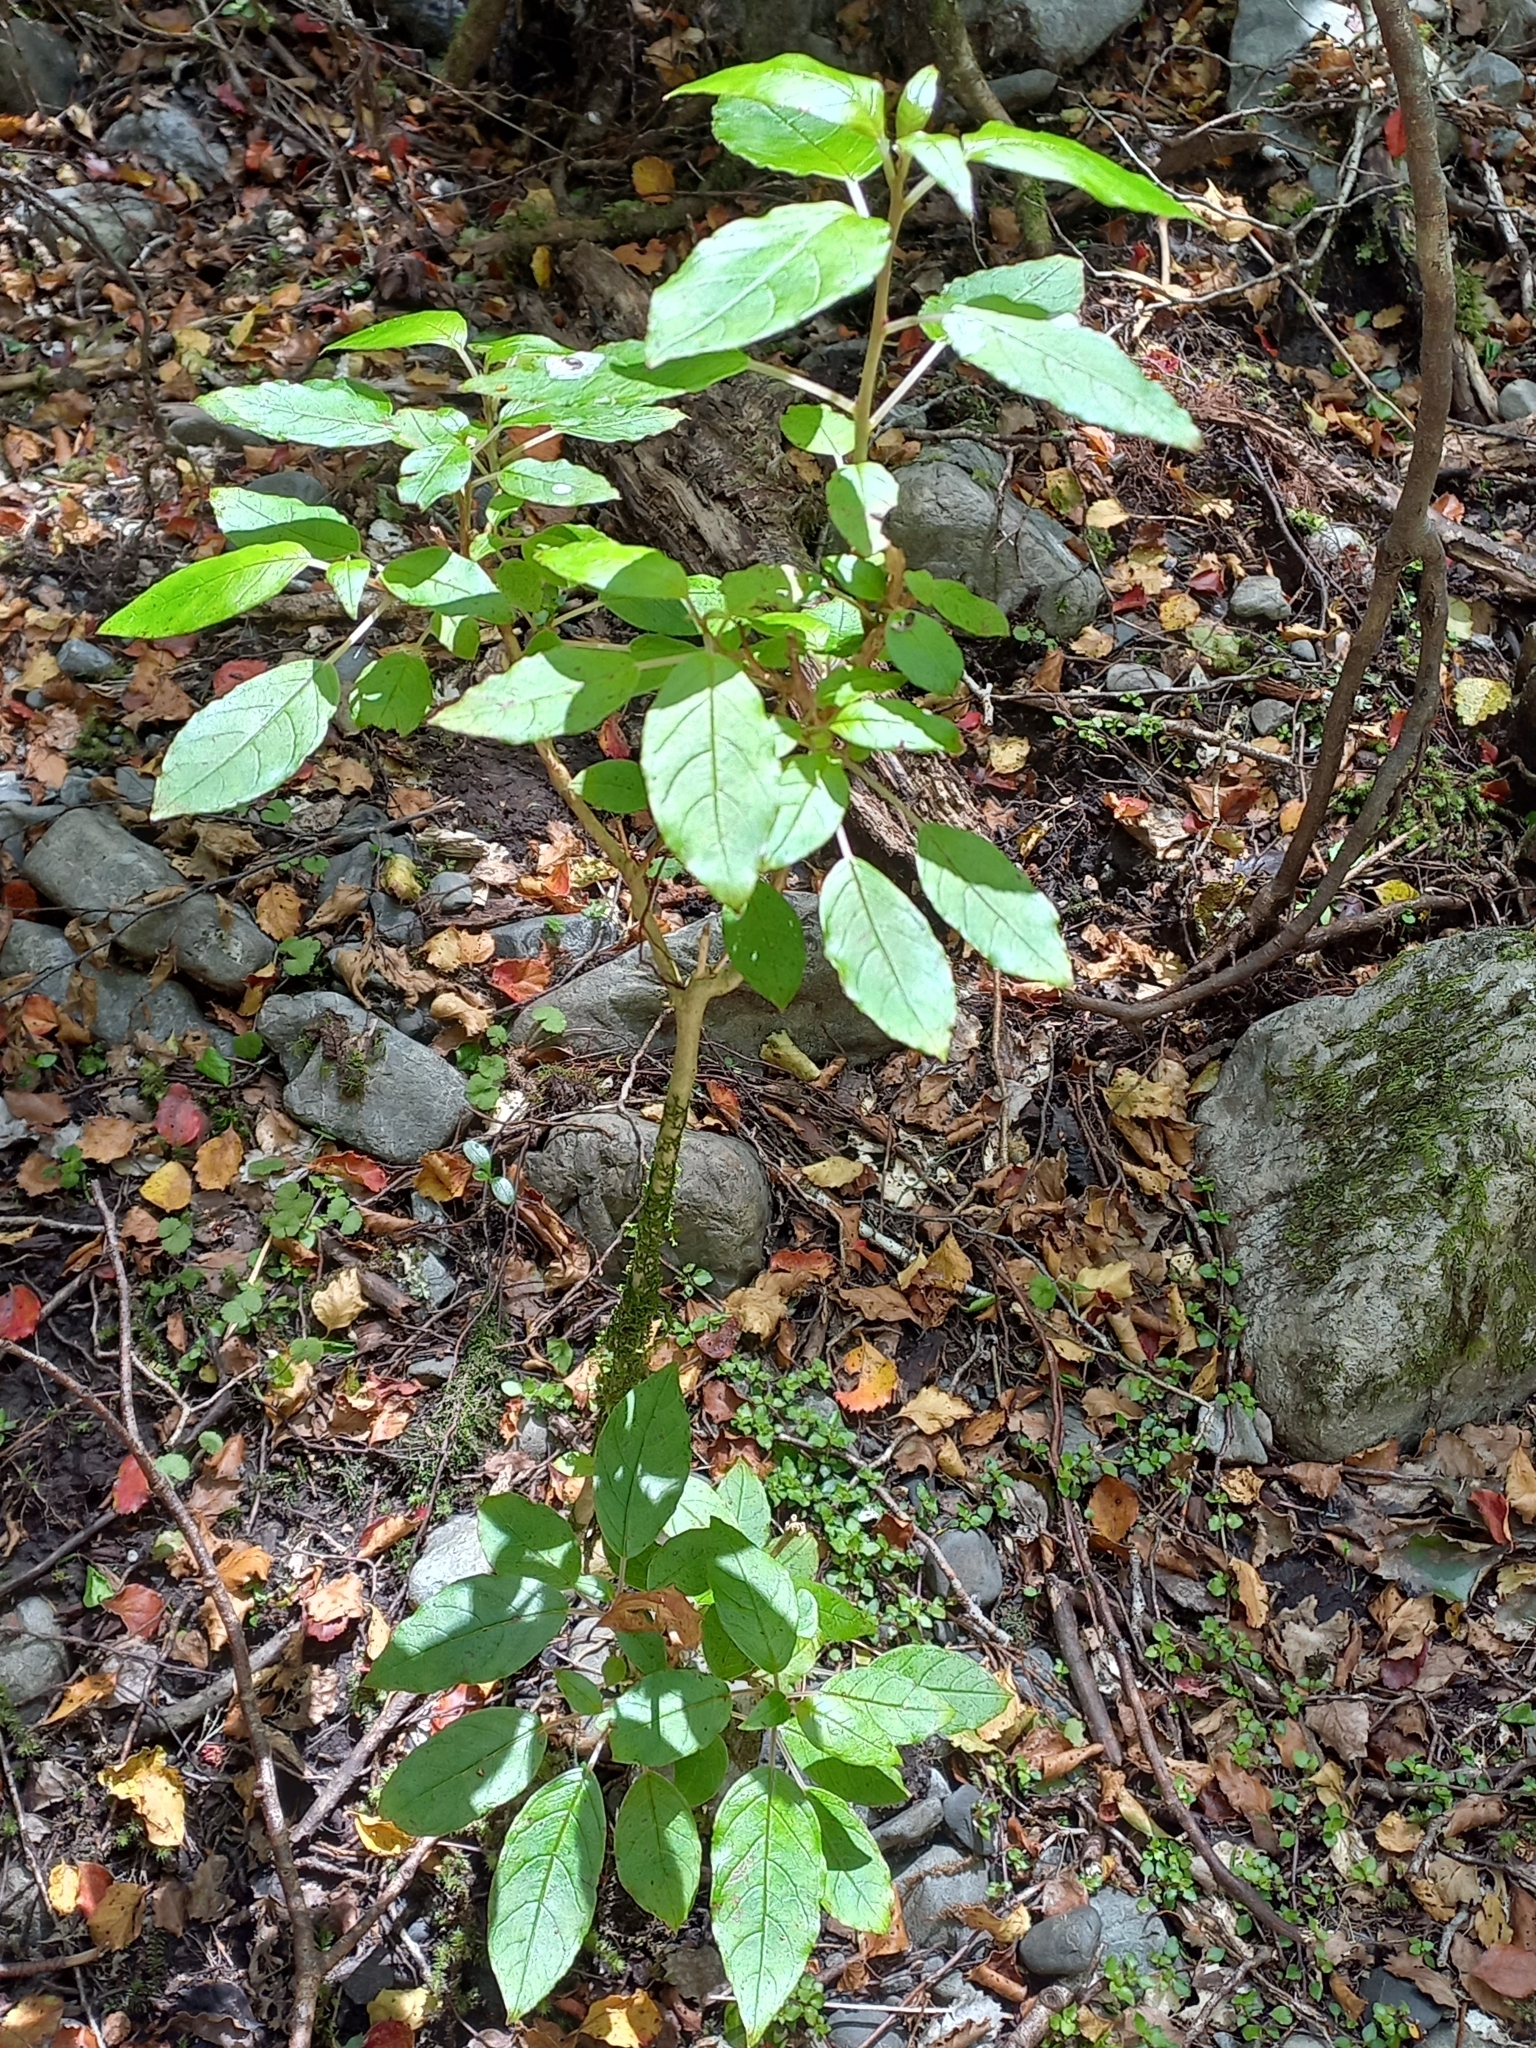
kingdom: Plantae
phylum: Tracheophyta
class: Magnoliopsida
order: Myrtales
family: Onagraceae
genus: Fuchsia
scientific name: Fuchsia excorticata
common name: Tree fuchsia
